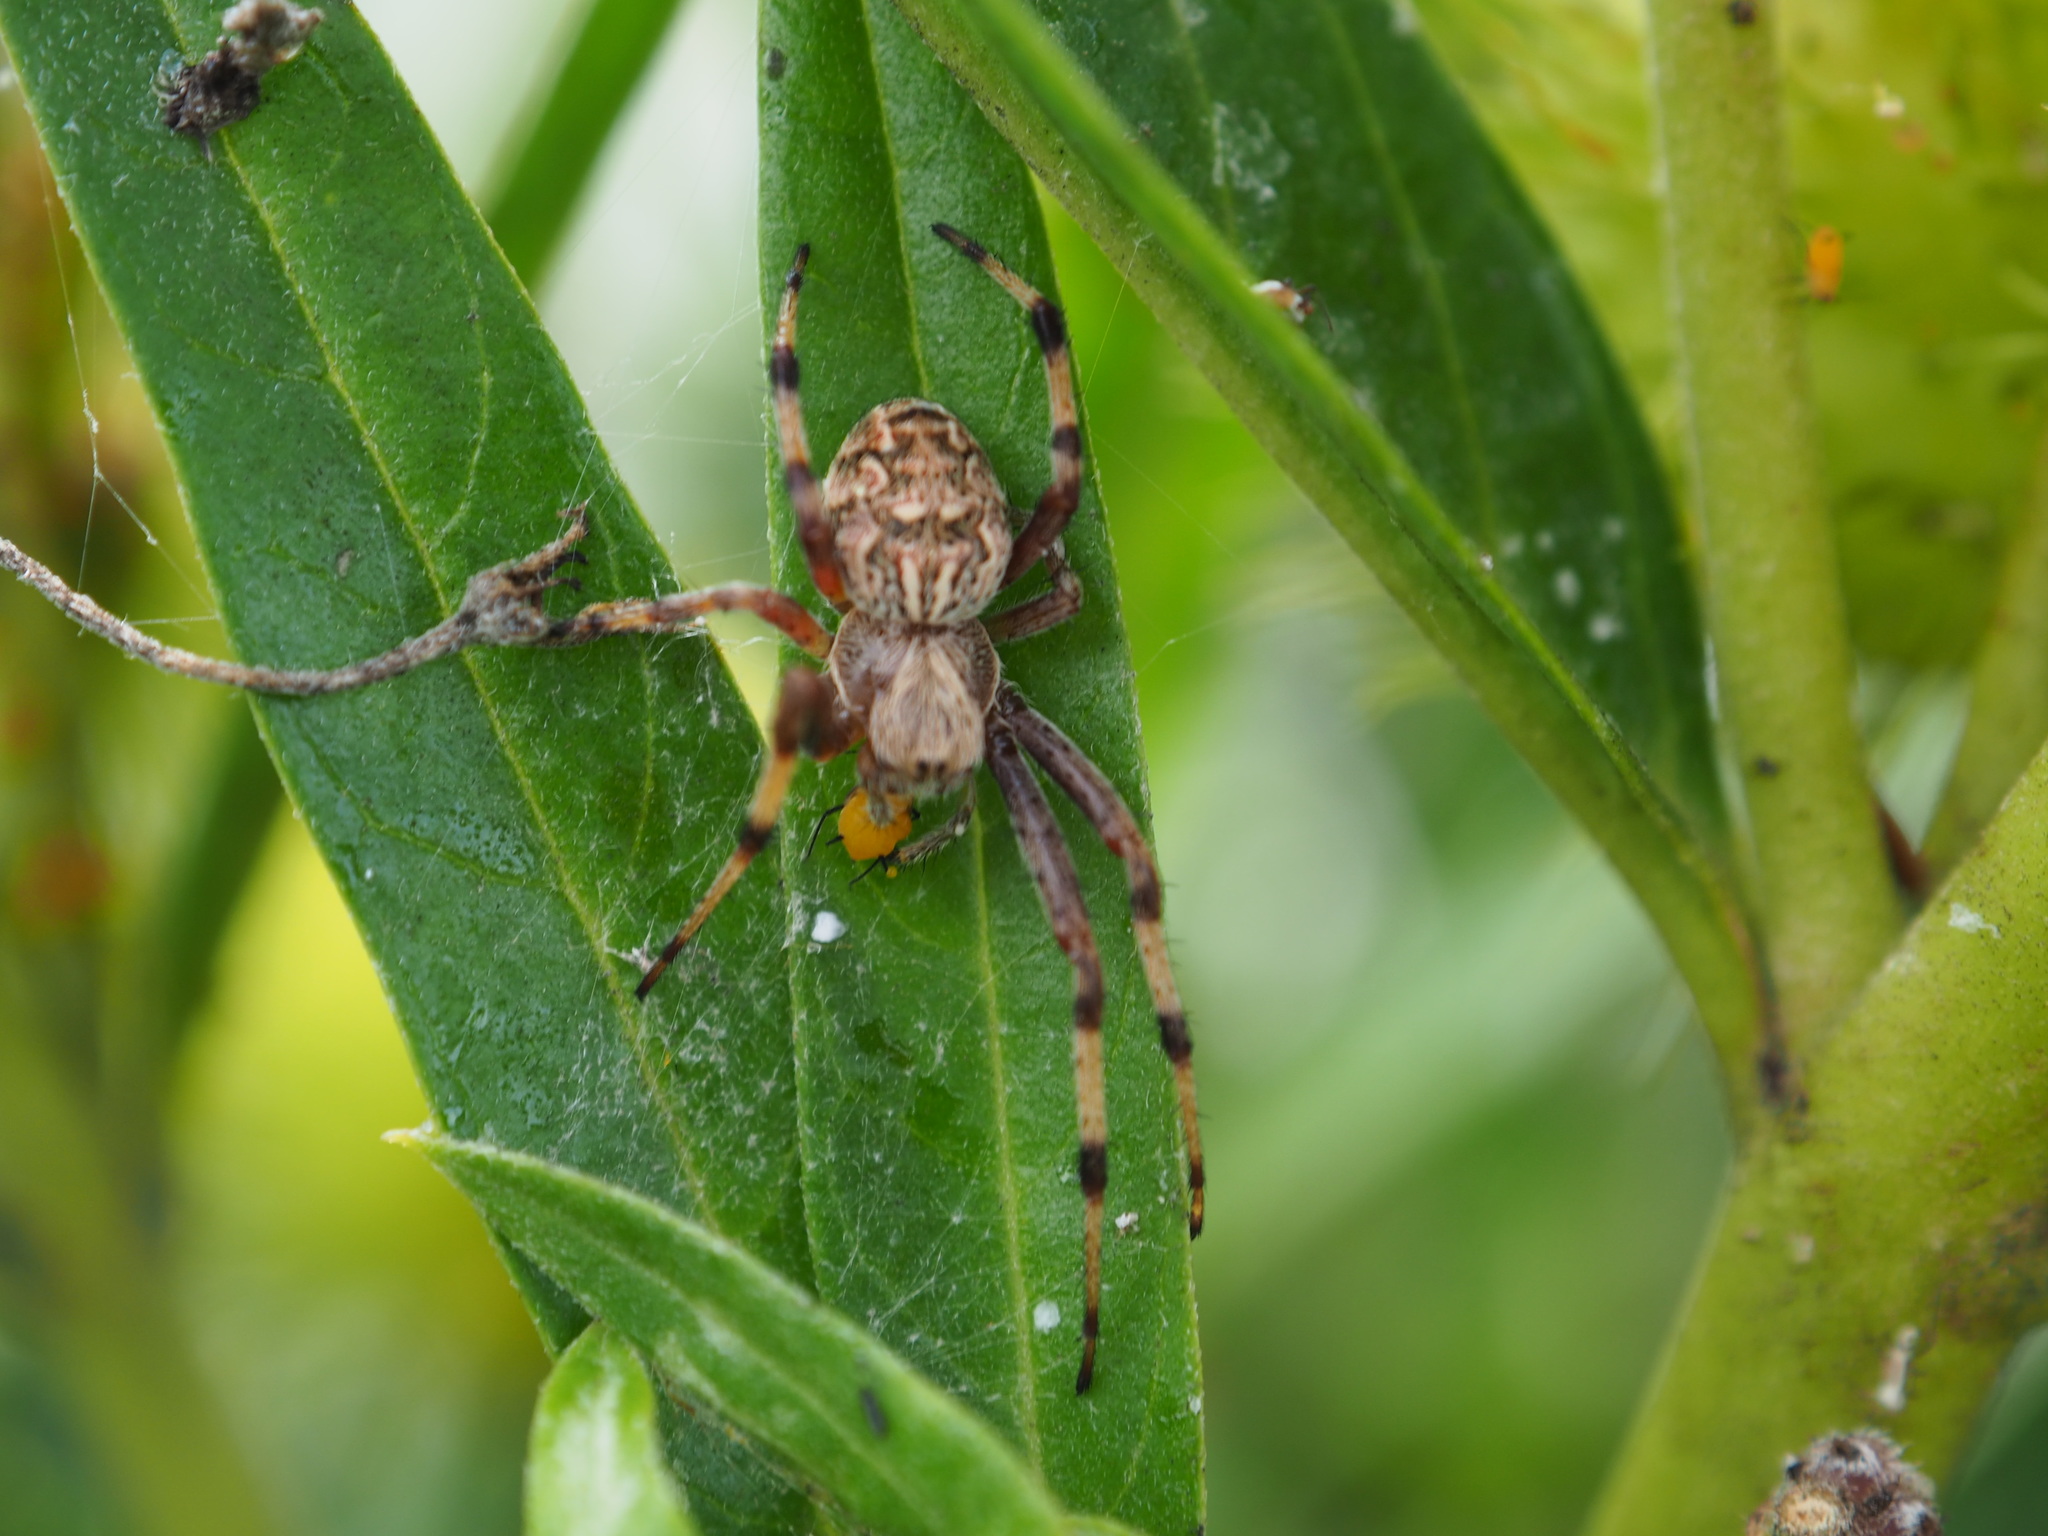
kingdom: Animalia
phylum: Arthropoda
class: Arachnida
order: Araneae
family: Araneidae
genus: Salsa
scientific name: Salsa fuliginata
